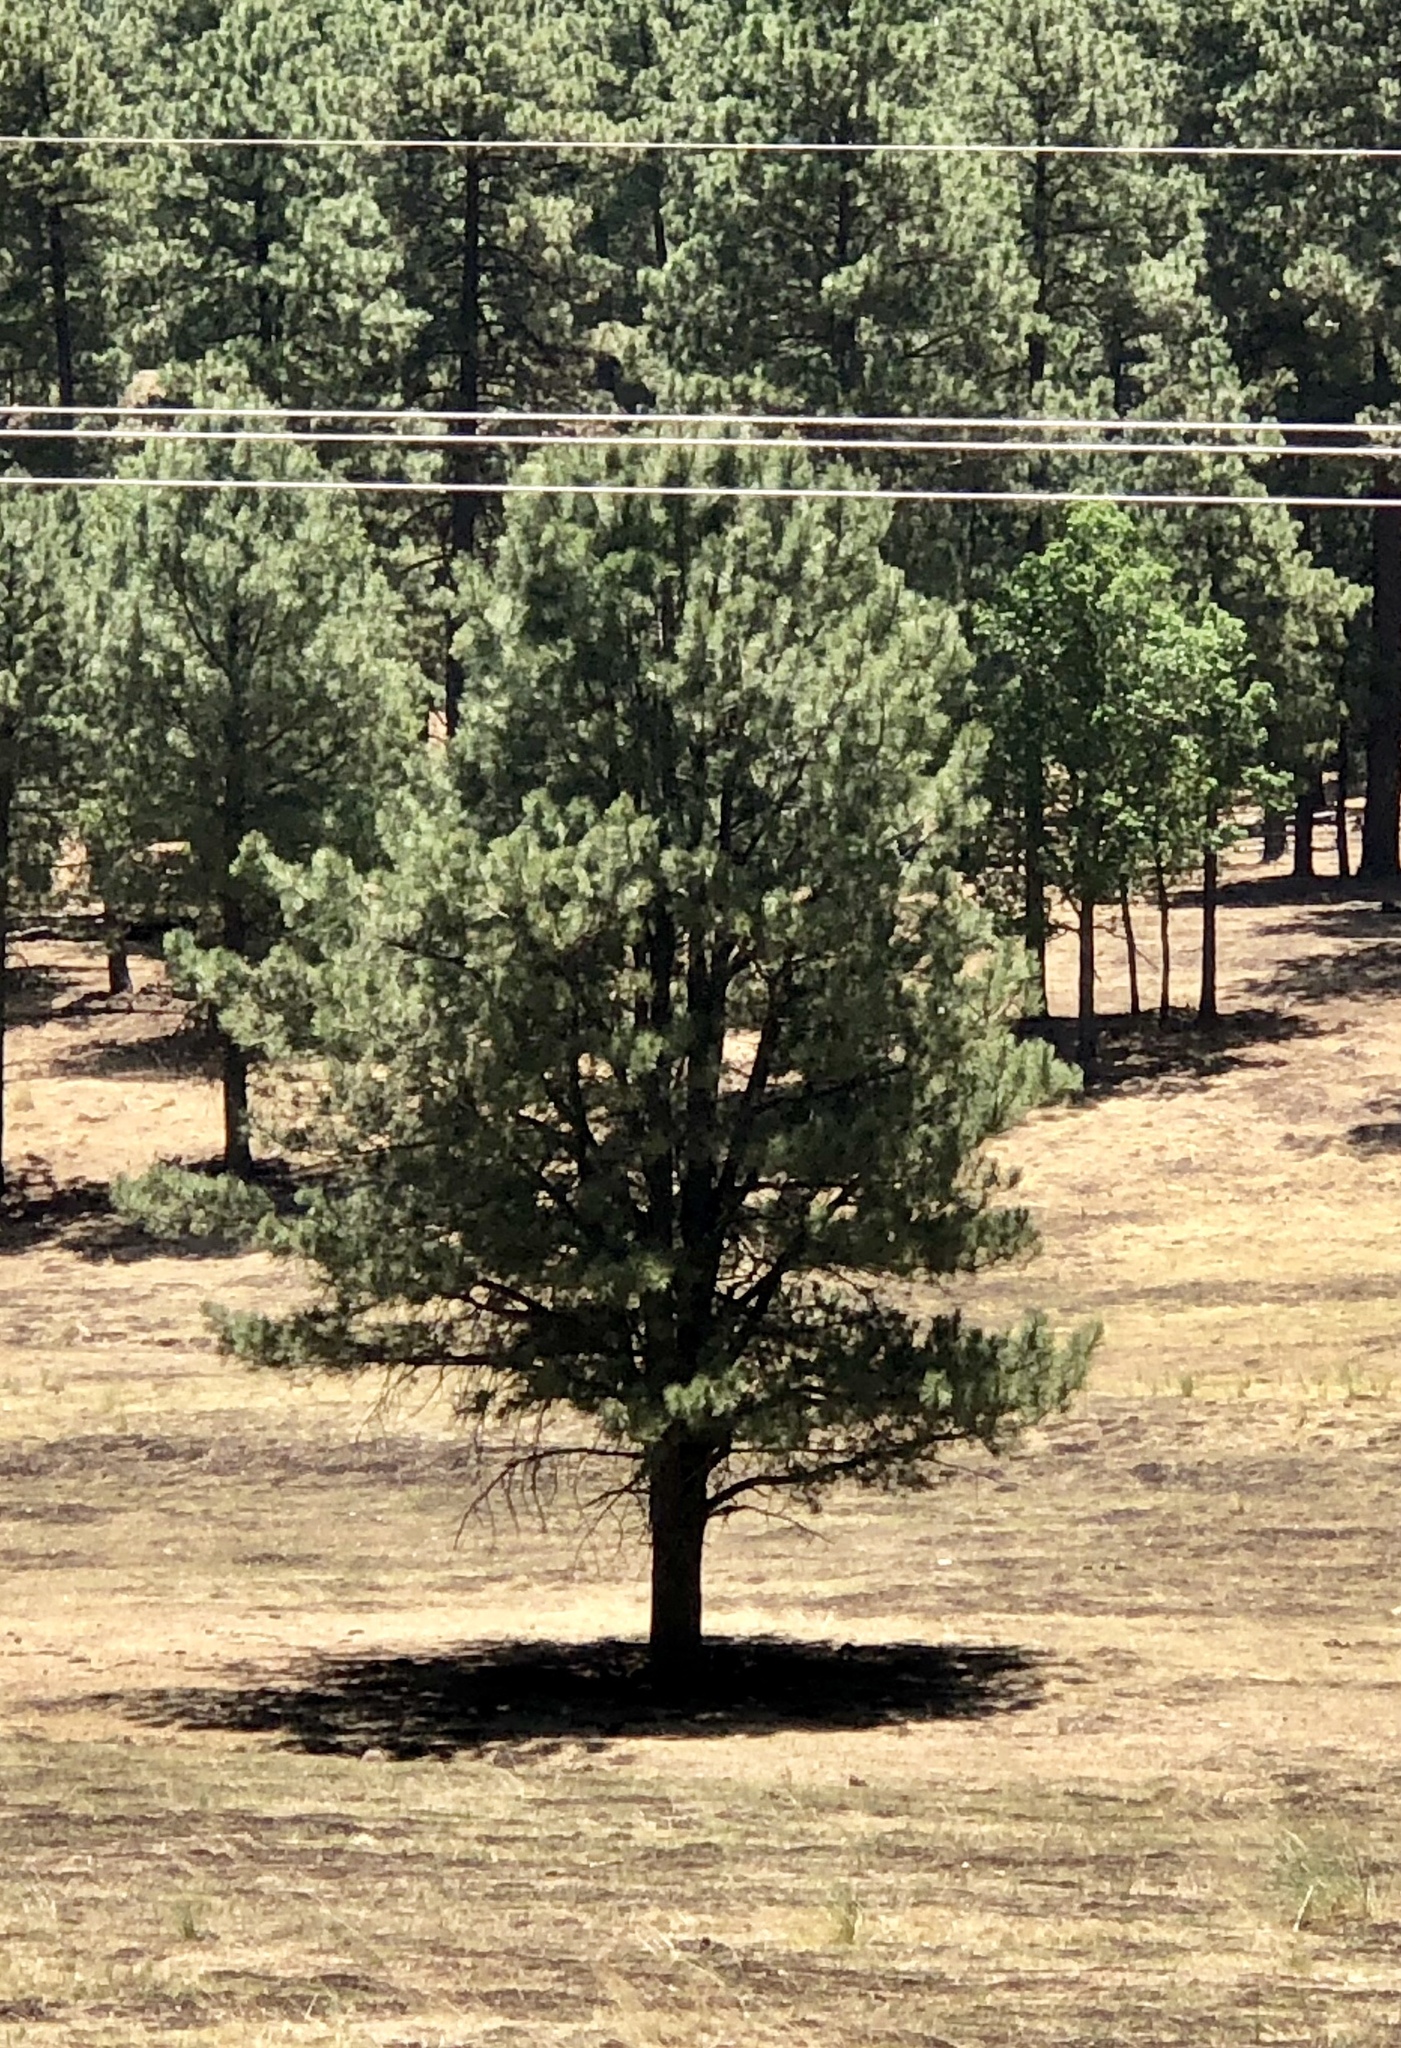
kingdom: Plantae
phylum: Tracheophyta
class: Pinopsida
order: Pinales
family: Pinaceae
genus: Pinus
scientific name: Pinus ponderosa
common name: Western yellow-pine
